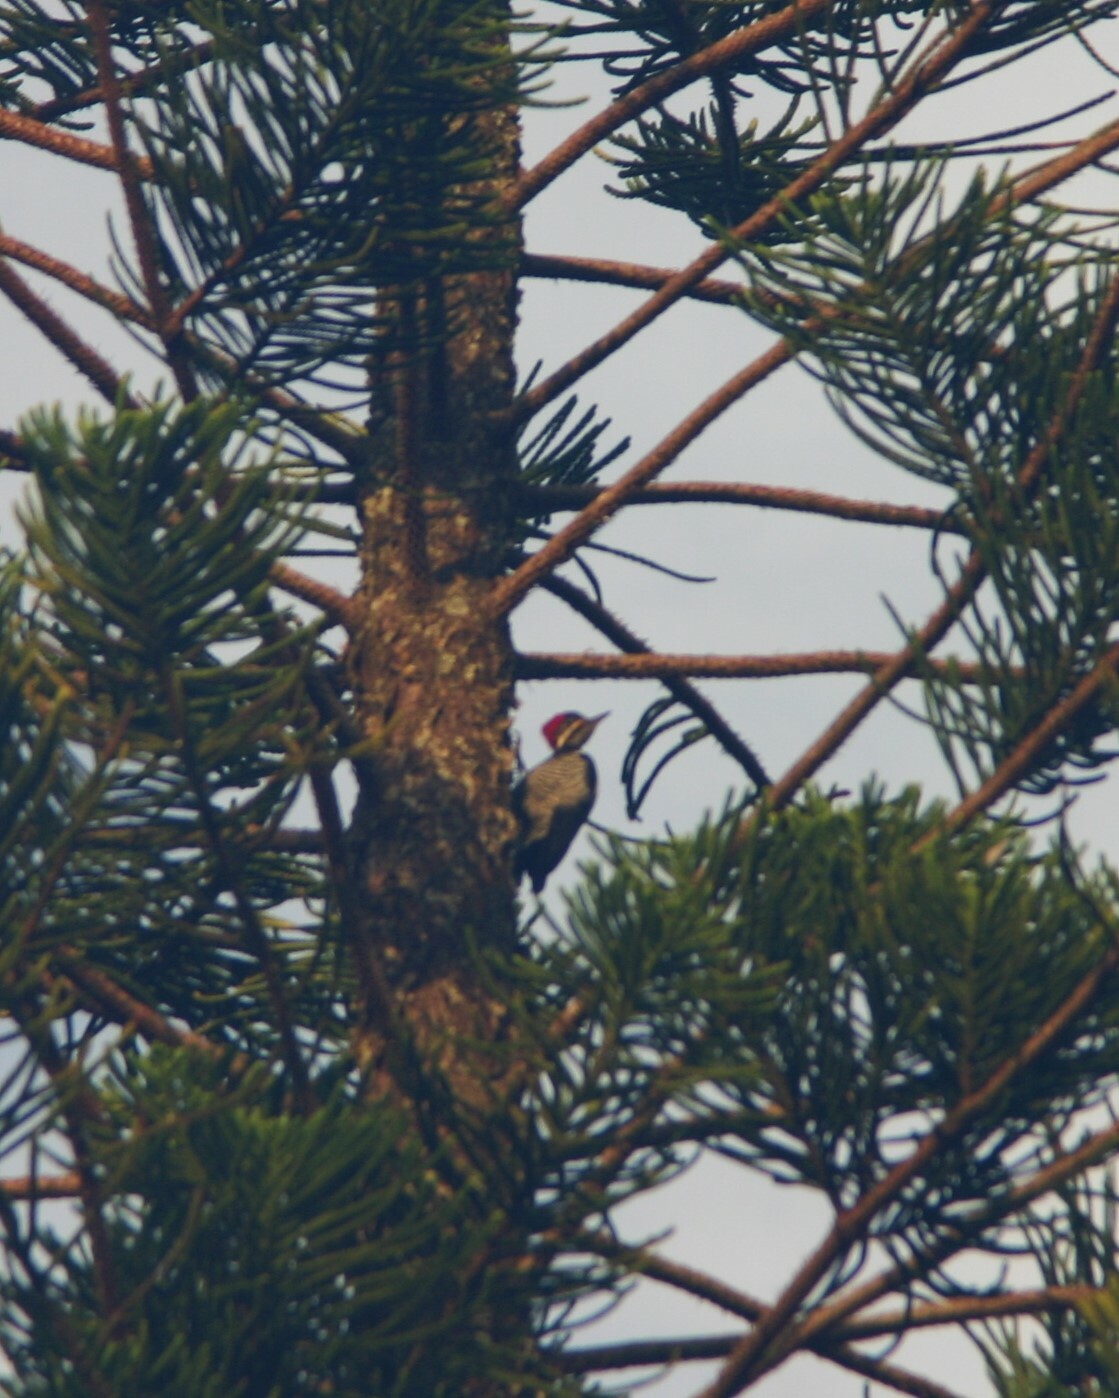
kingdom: Animalia
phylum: Chordata
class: Aves
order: Piciformes
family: Picidae
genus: Dryocopus
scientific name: Dryocopus lineatus
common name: Lineated woodpecker
